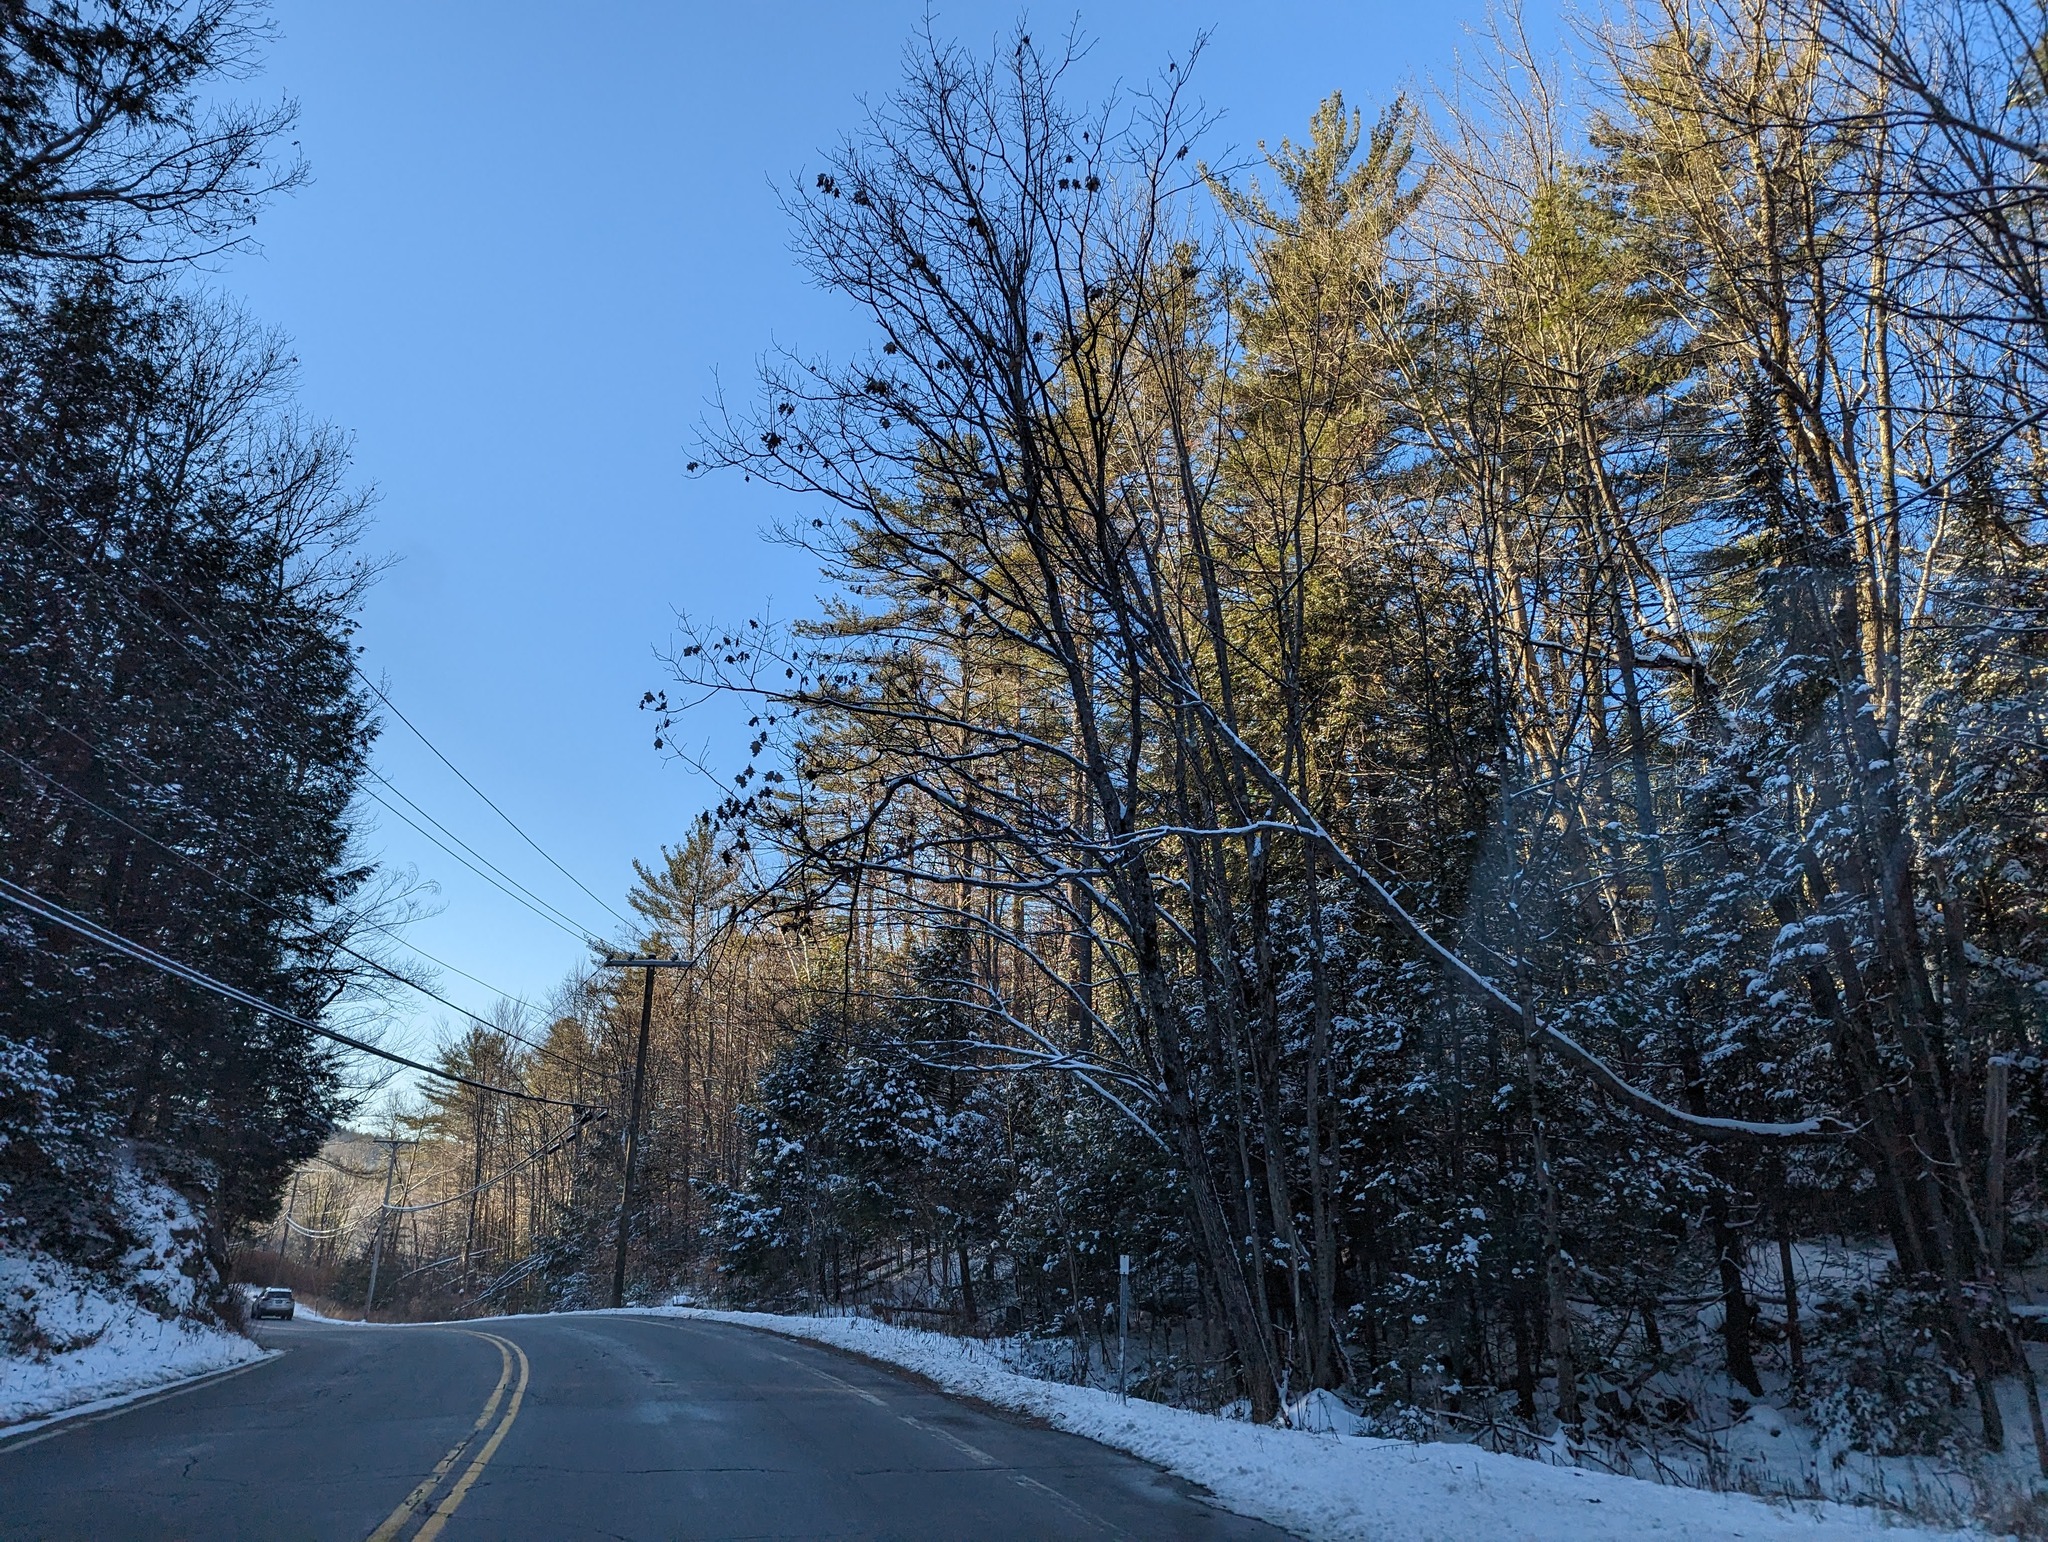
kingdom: Plantae
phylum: Tracheophyta
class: Pinopsida
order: Pinales
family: Pinaceae
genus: Pinus
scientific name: Pinus strobus
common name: Weymouth pine
